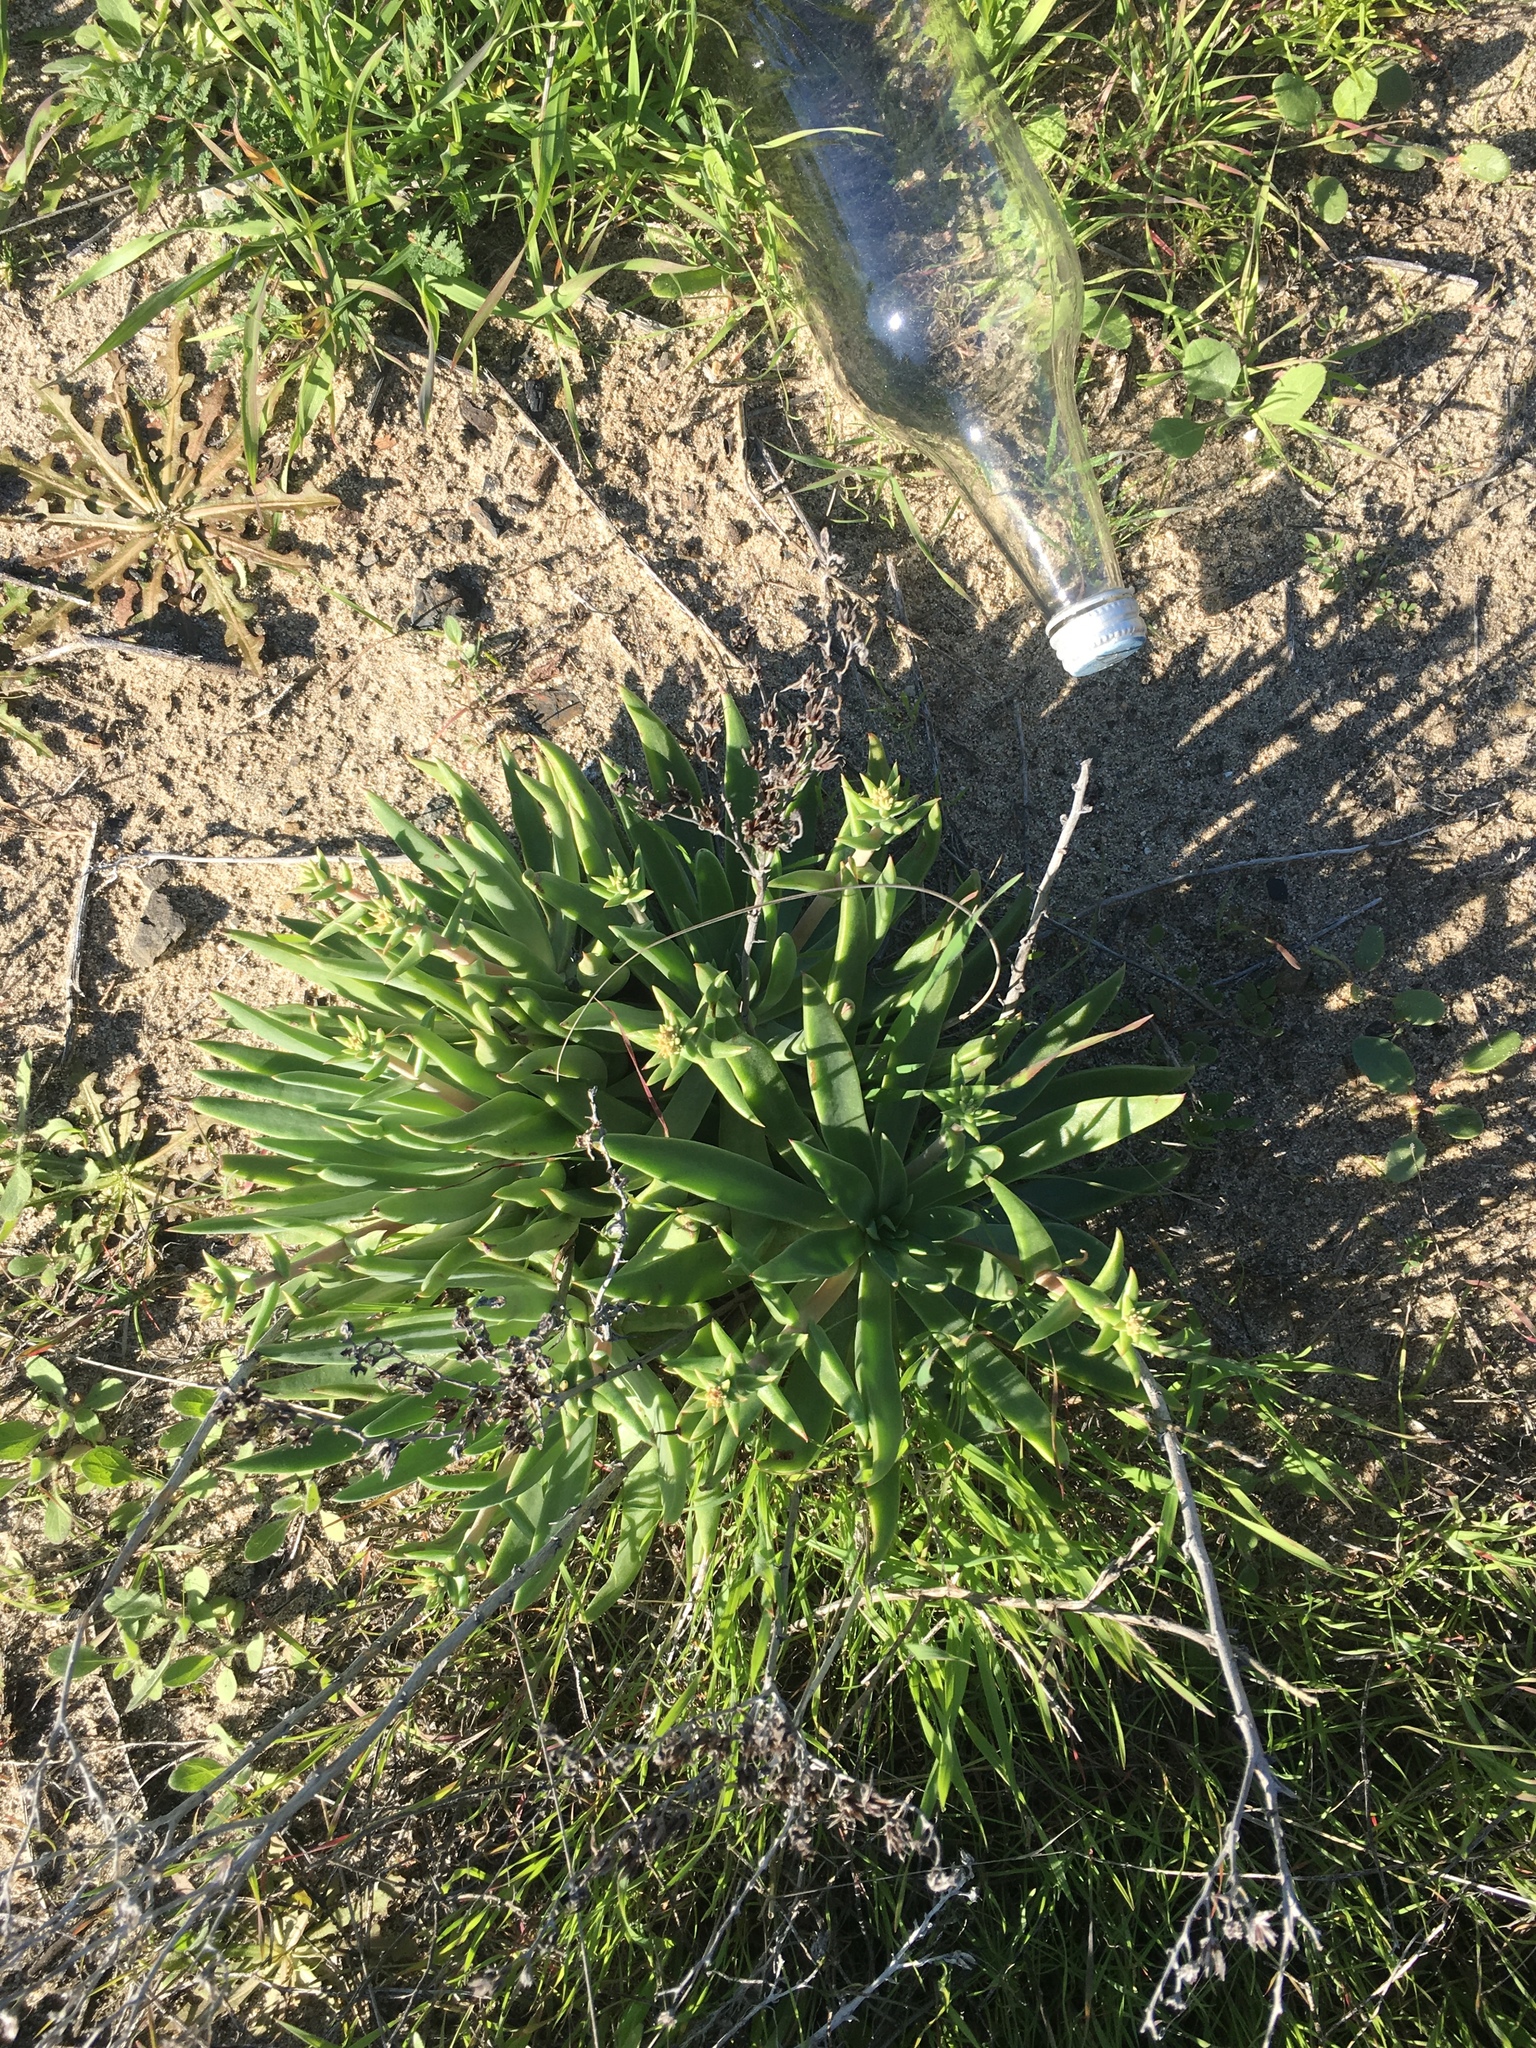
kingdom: Plantae
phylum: Tracheophyta
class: Magnoliopsida
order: Saxifragales
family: Crassulaceae
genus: Dudleya
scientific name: Dudleya caespitosa
